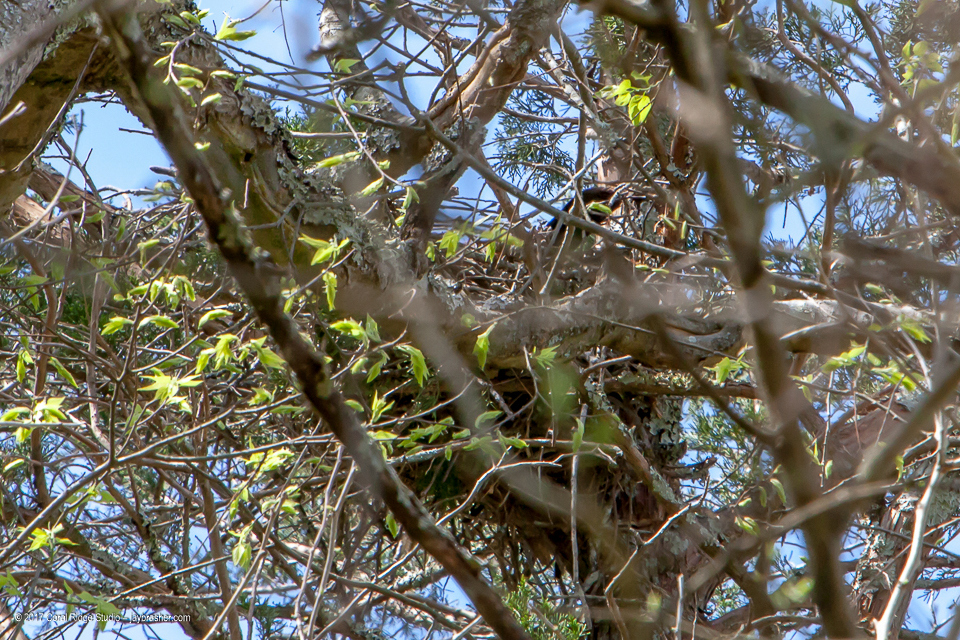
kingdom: Animalia
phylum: Chordata
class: Aves
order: Passeriformes
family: Corvidae
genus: Corvus
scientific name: Corvus brachyrhynchos
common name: American crow
